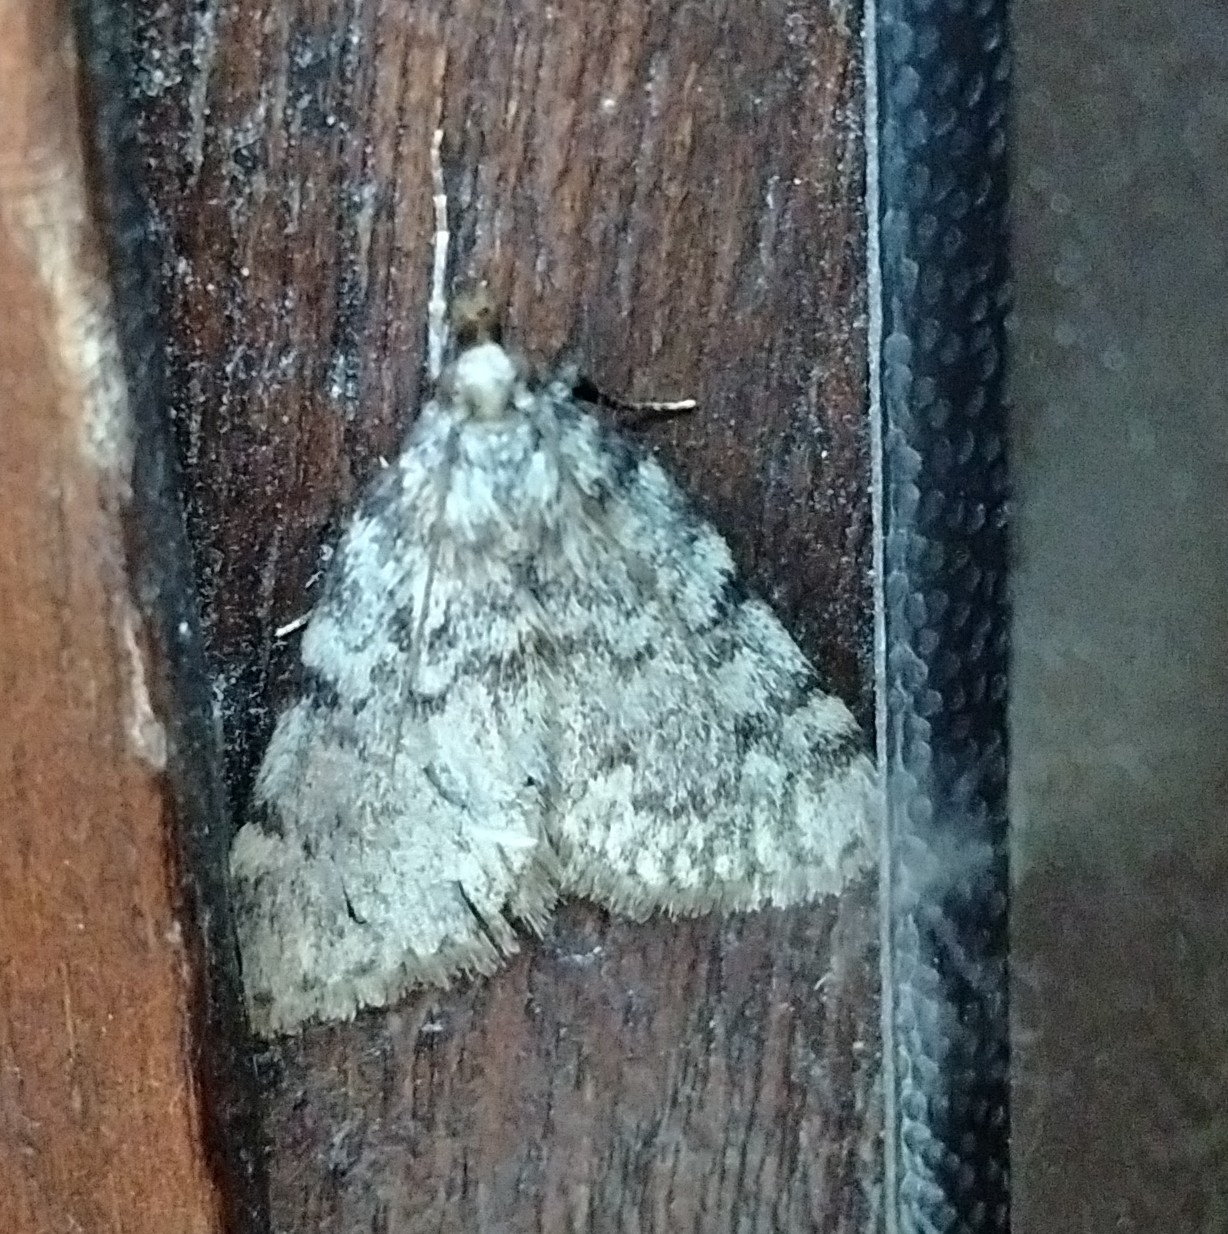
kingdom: Animalia
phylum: Arthropoda
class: Insecta
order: Lepidoptera
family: Pyralidae
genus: Aglossa
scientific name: Aglossa pinguinalis
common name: Large tabby
